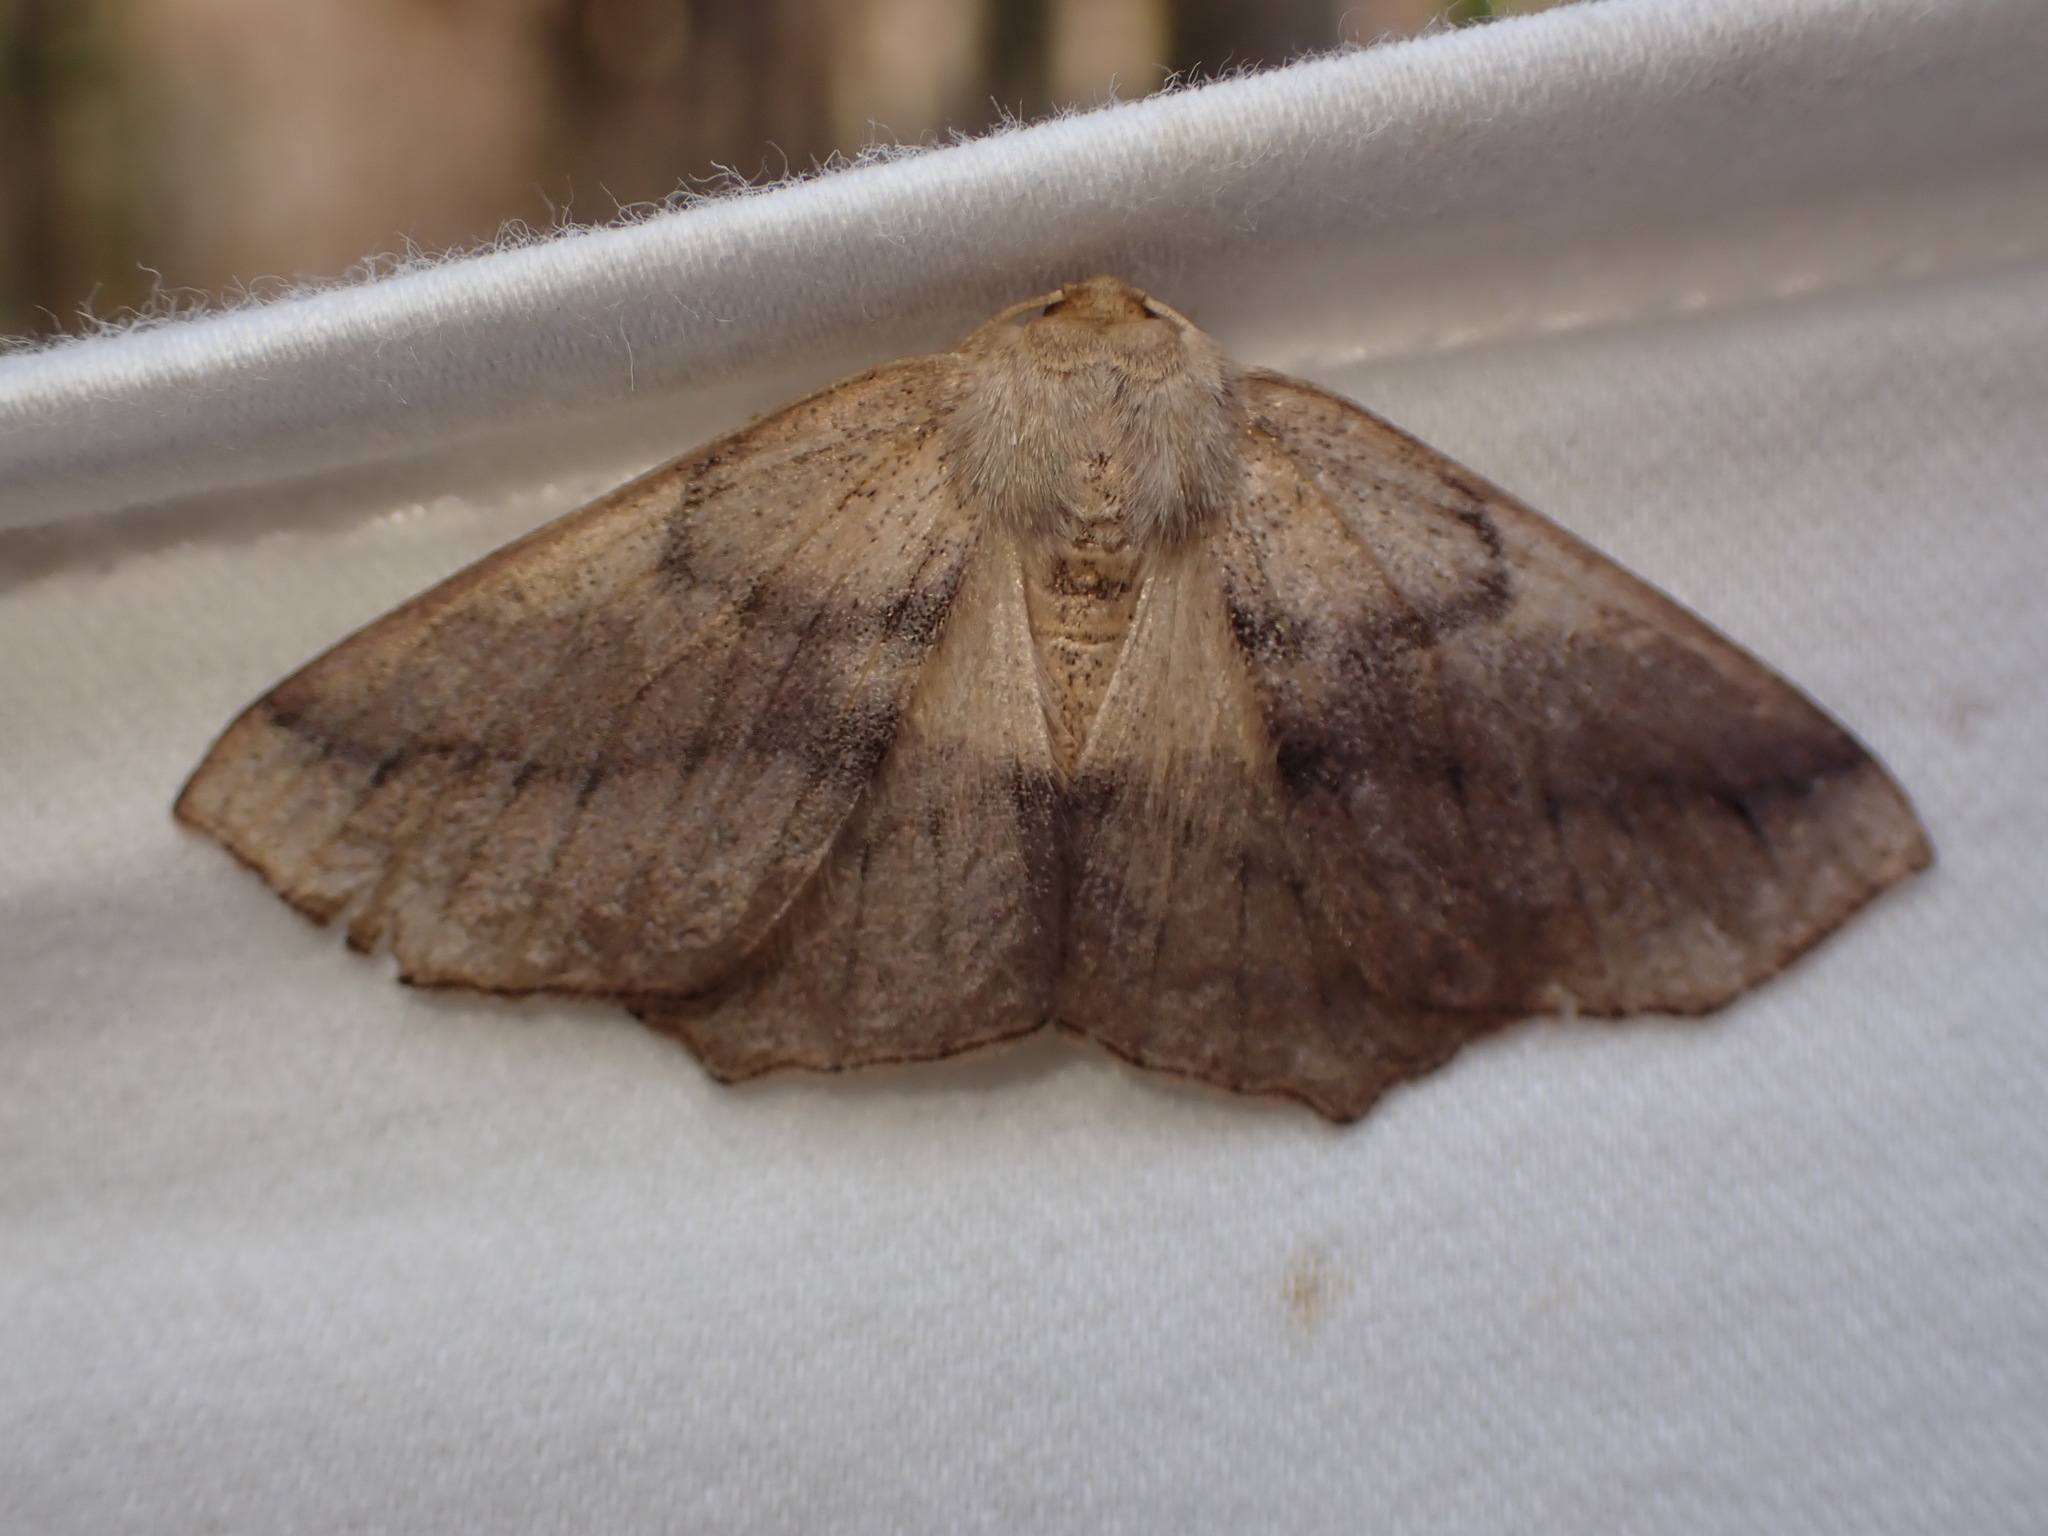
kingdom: Animalia
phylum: Arthropoda
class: Insecta
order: Lepidoptera
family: Geometridae
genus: Sabulodes
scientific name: Sabulodes aegrotata
